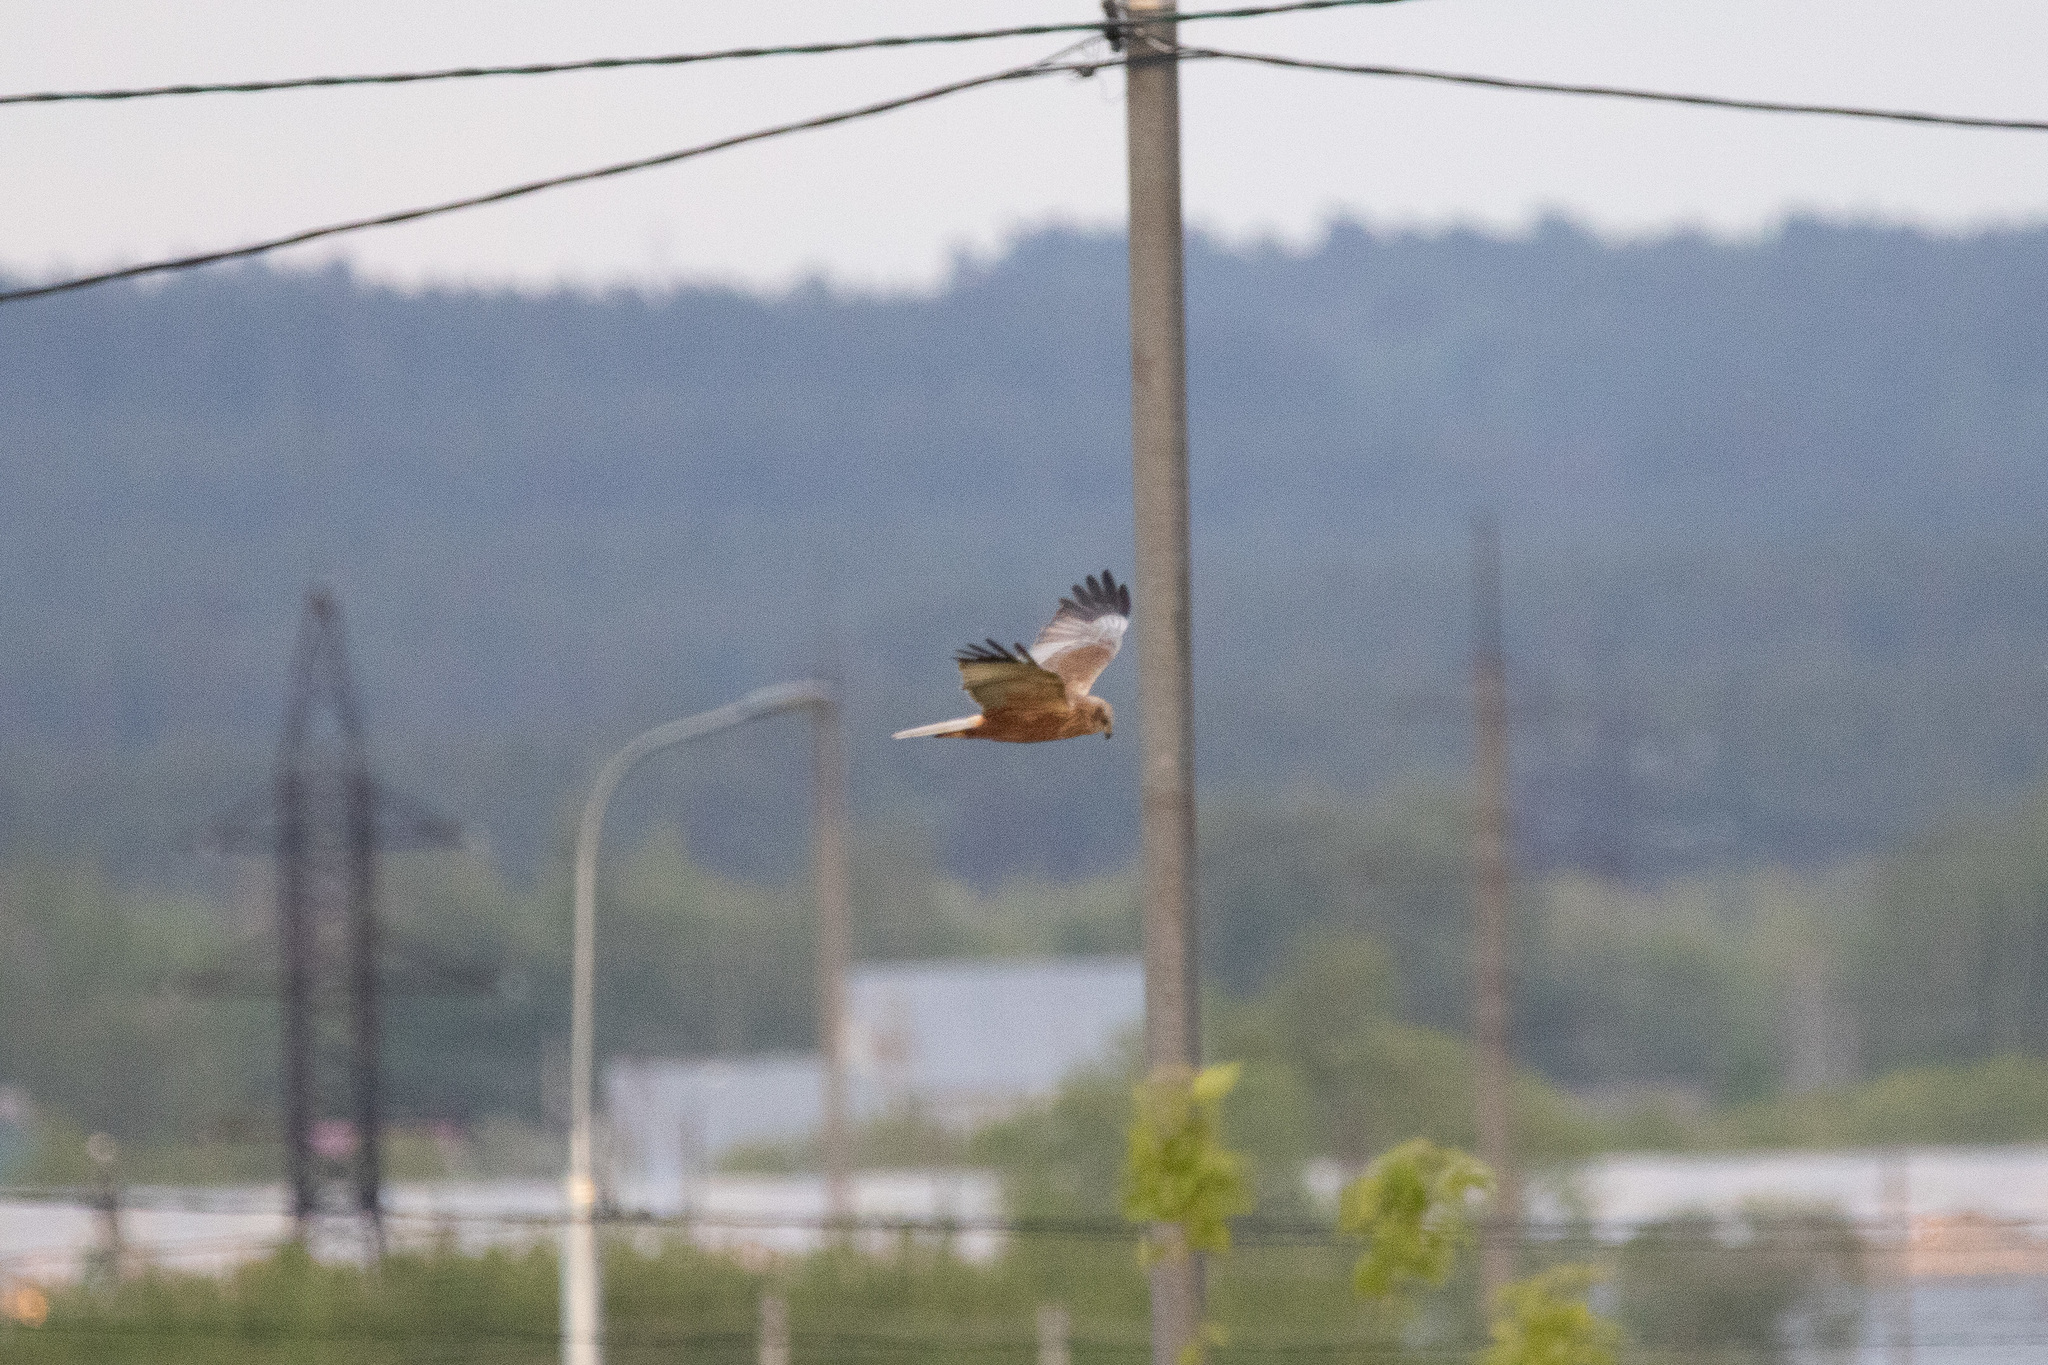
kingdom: Animalia
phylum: Chordata
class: Aves
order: Accipitriformes
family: Accipitridae
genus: Circus
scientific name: Circus aeruginosus
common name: Western marsh harrier
